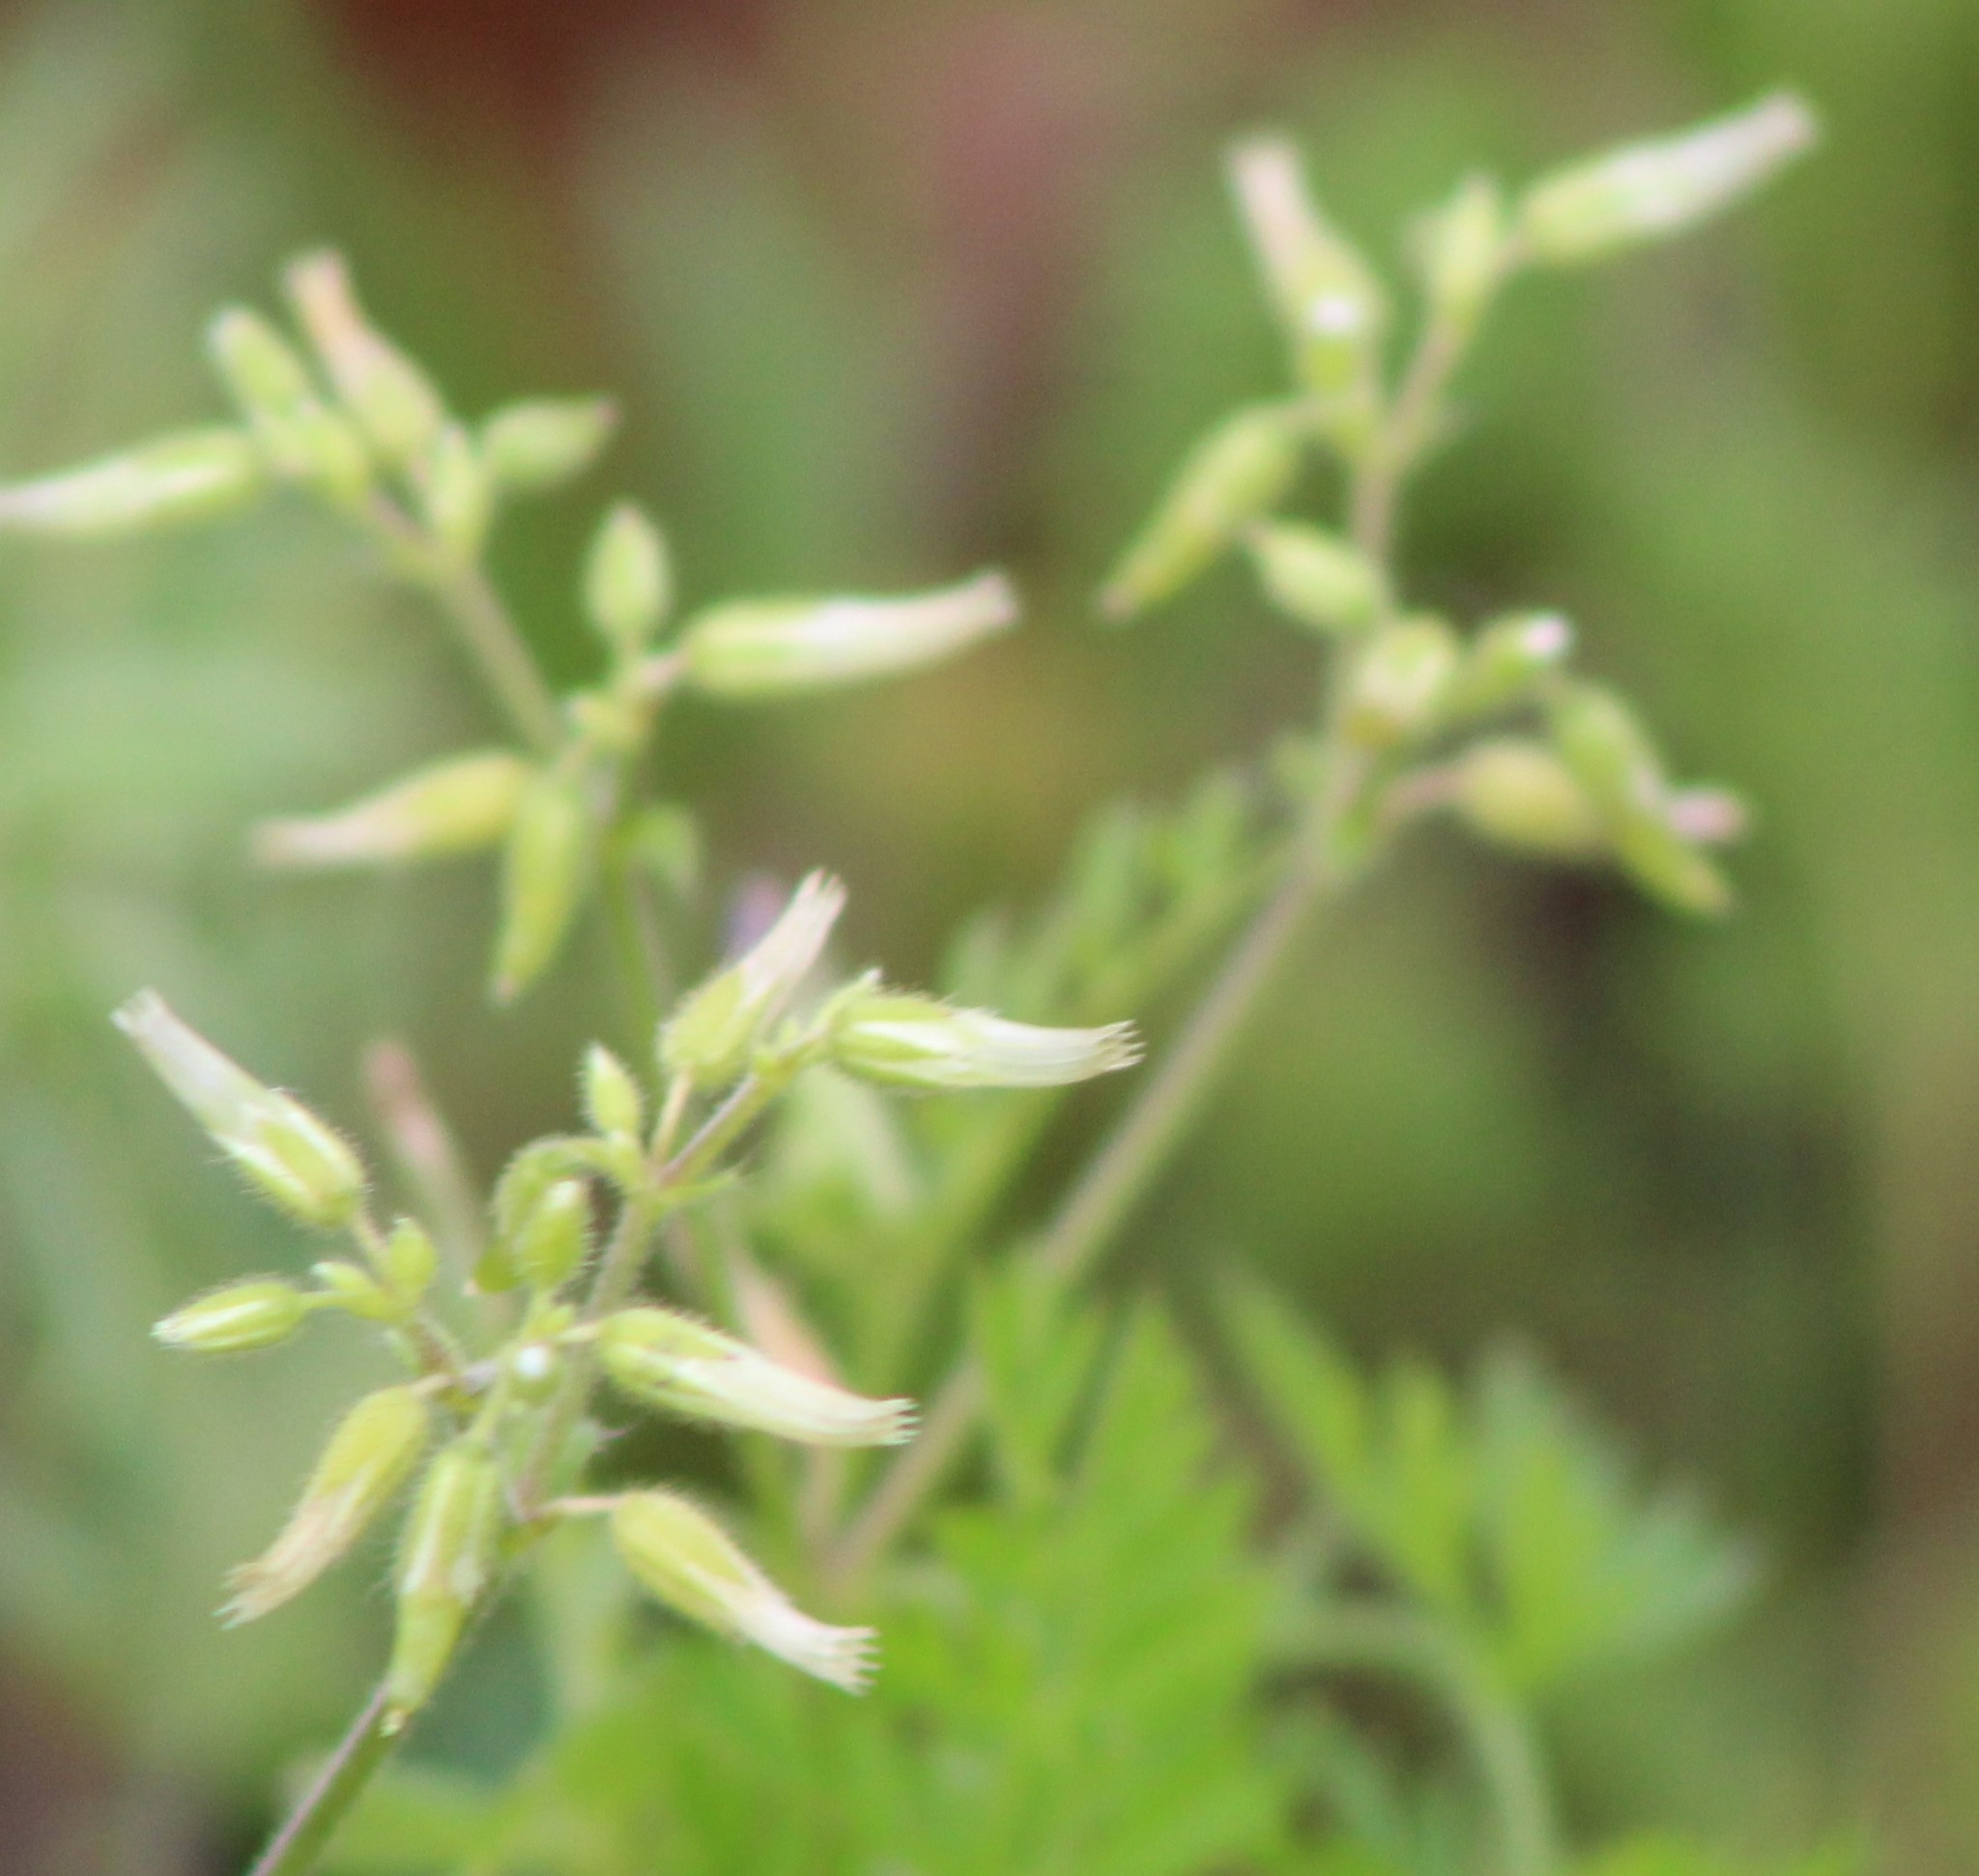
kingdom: Plantae
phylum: Tracheophyta
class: Magnoliopsida
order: Caryophyllales
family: Caryophyllaceae
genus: Cerastium
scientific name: Cerastium glomeratum
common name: Sticky chickweed
